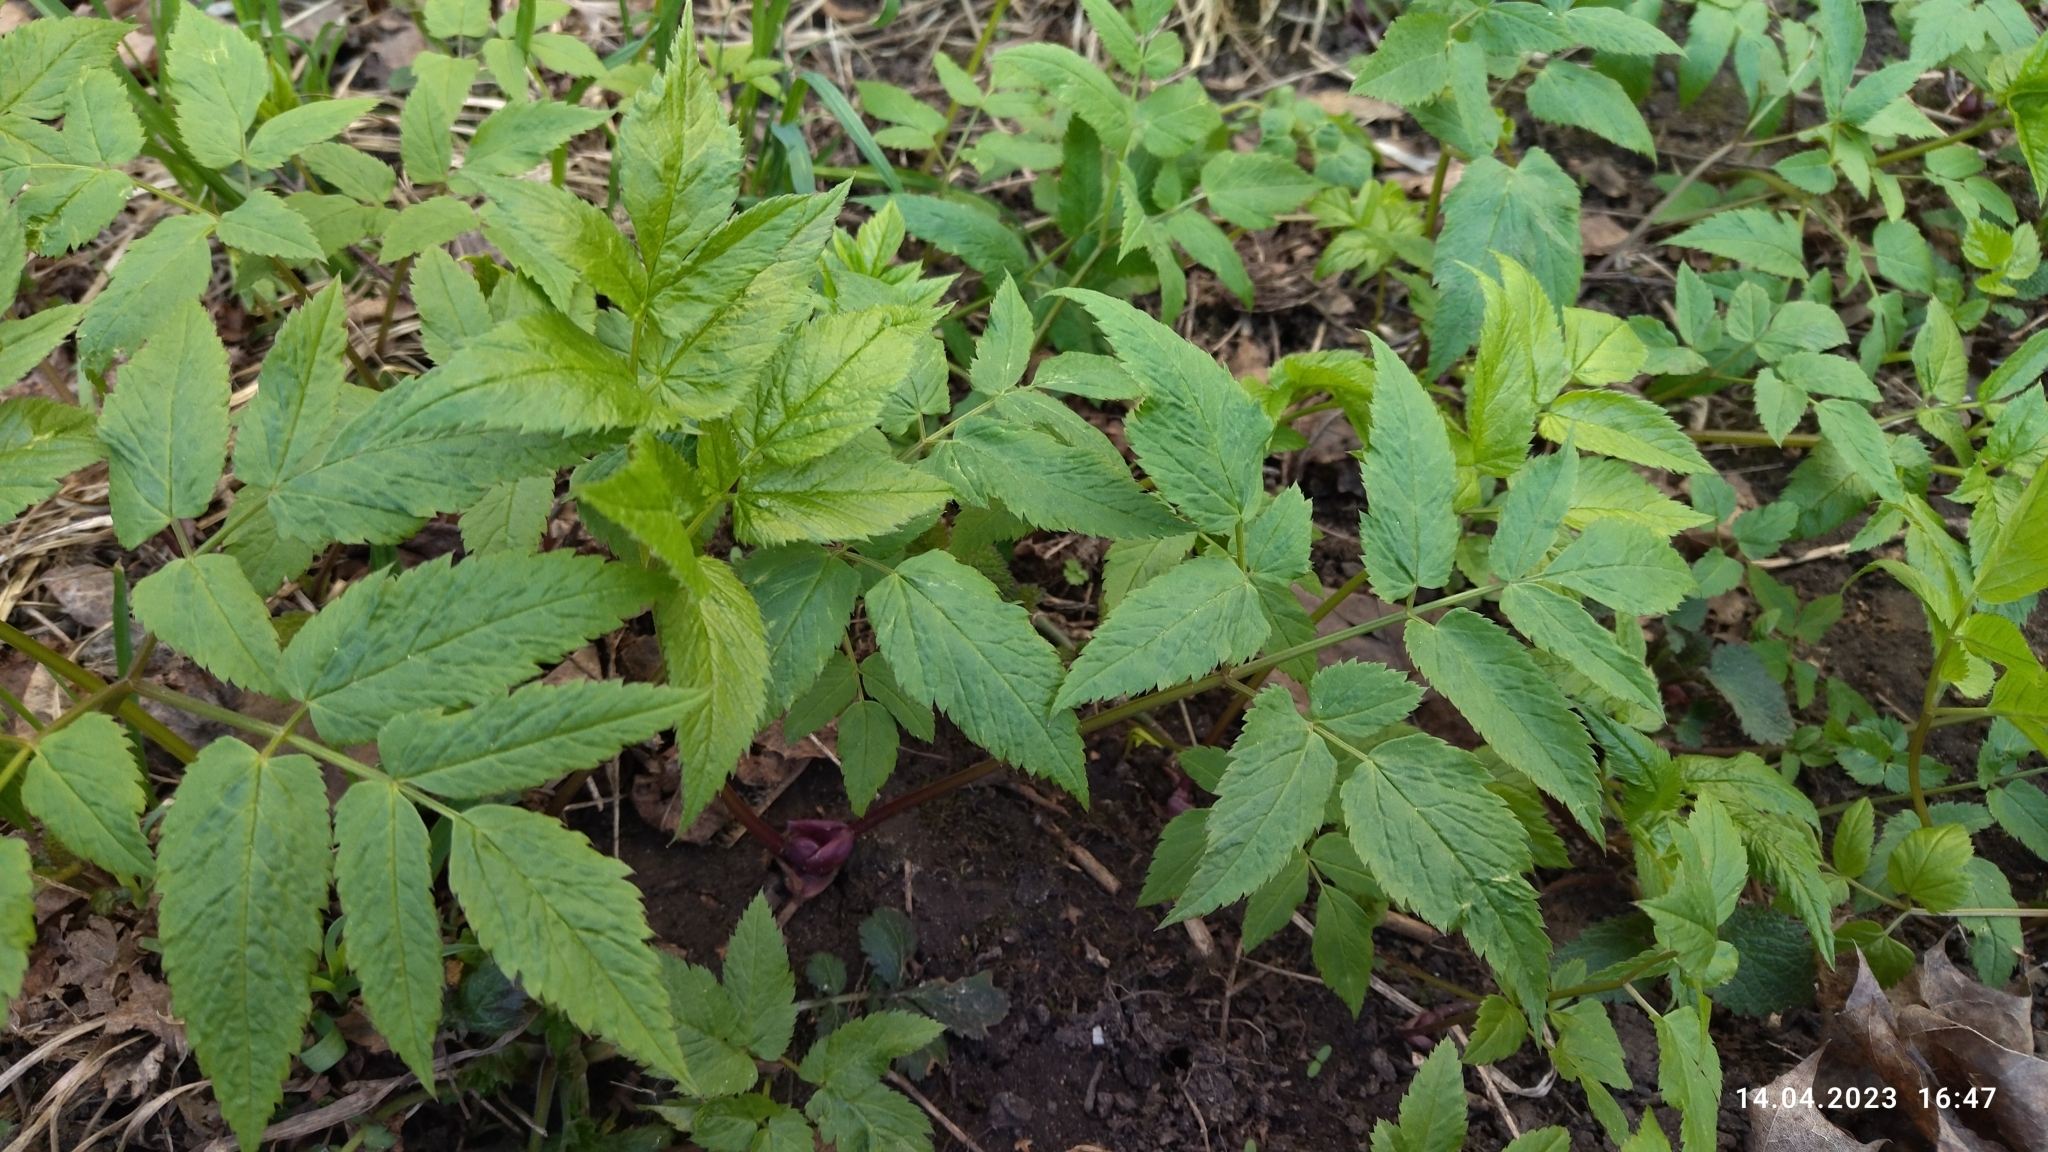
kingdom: Plantae
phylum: Tracheophyta
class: Magnoliopsida
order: Apiales
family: Apiaceae
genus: Aegopodium
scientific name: Aegopodium podagraria
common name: Ground-elder
